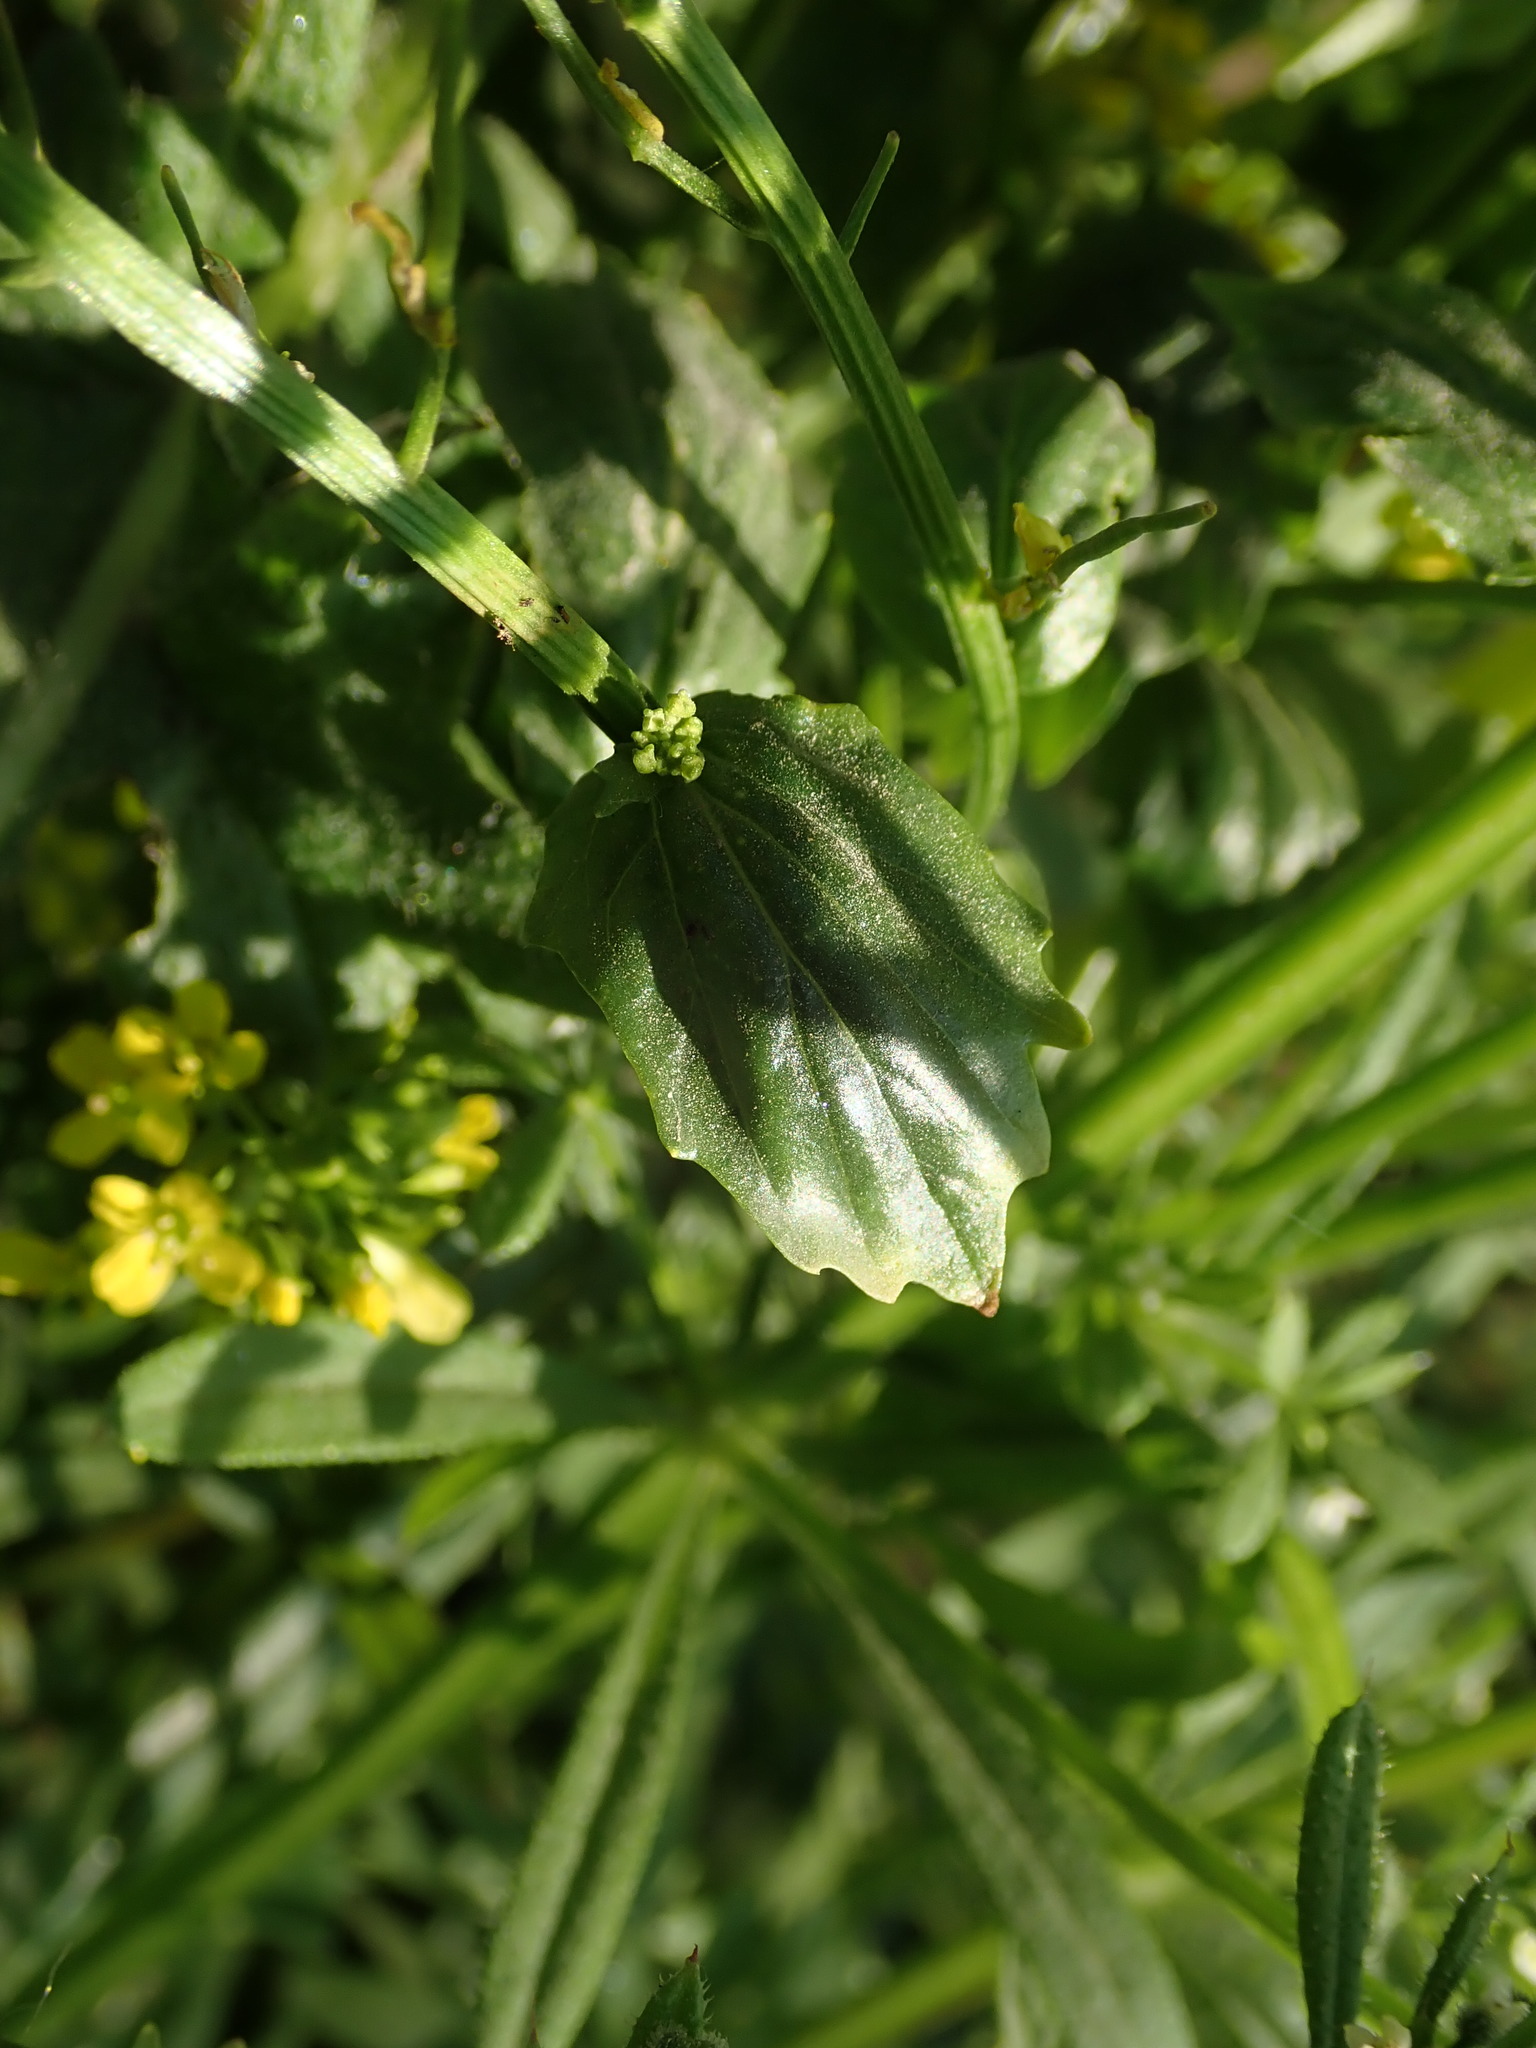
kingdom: Plantae
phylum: Tracheophyta
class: Magnoliopsida
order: Brassicales
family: Brassicaceae
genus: Barbarea
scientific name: Barbarea vulgaris
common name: Cressy-greens
